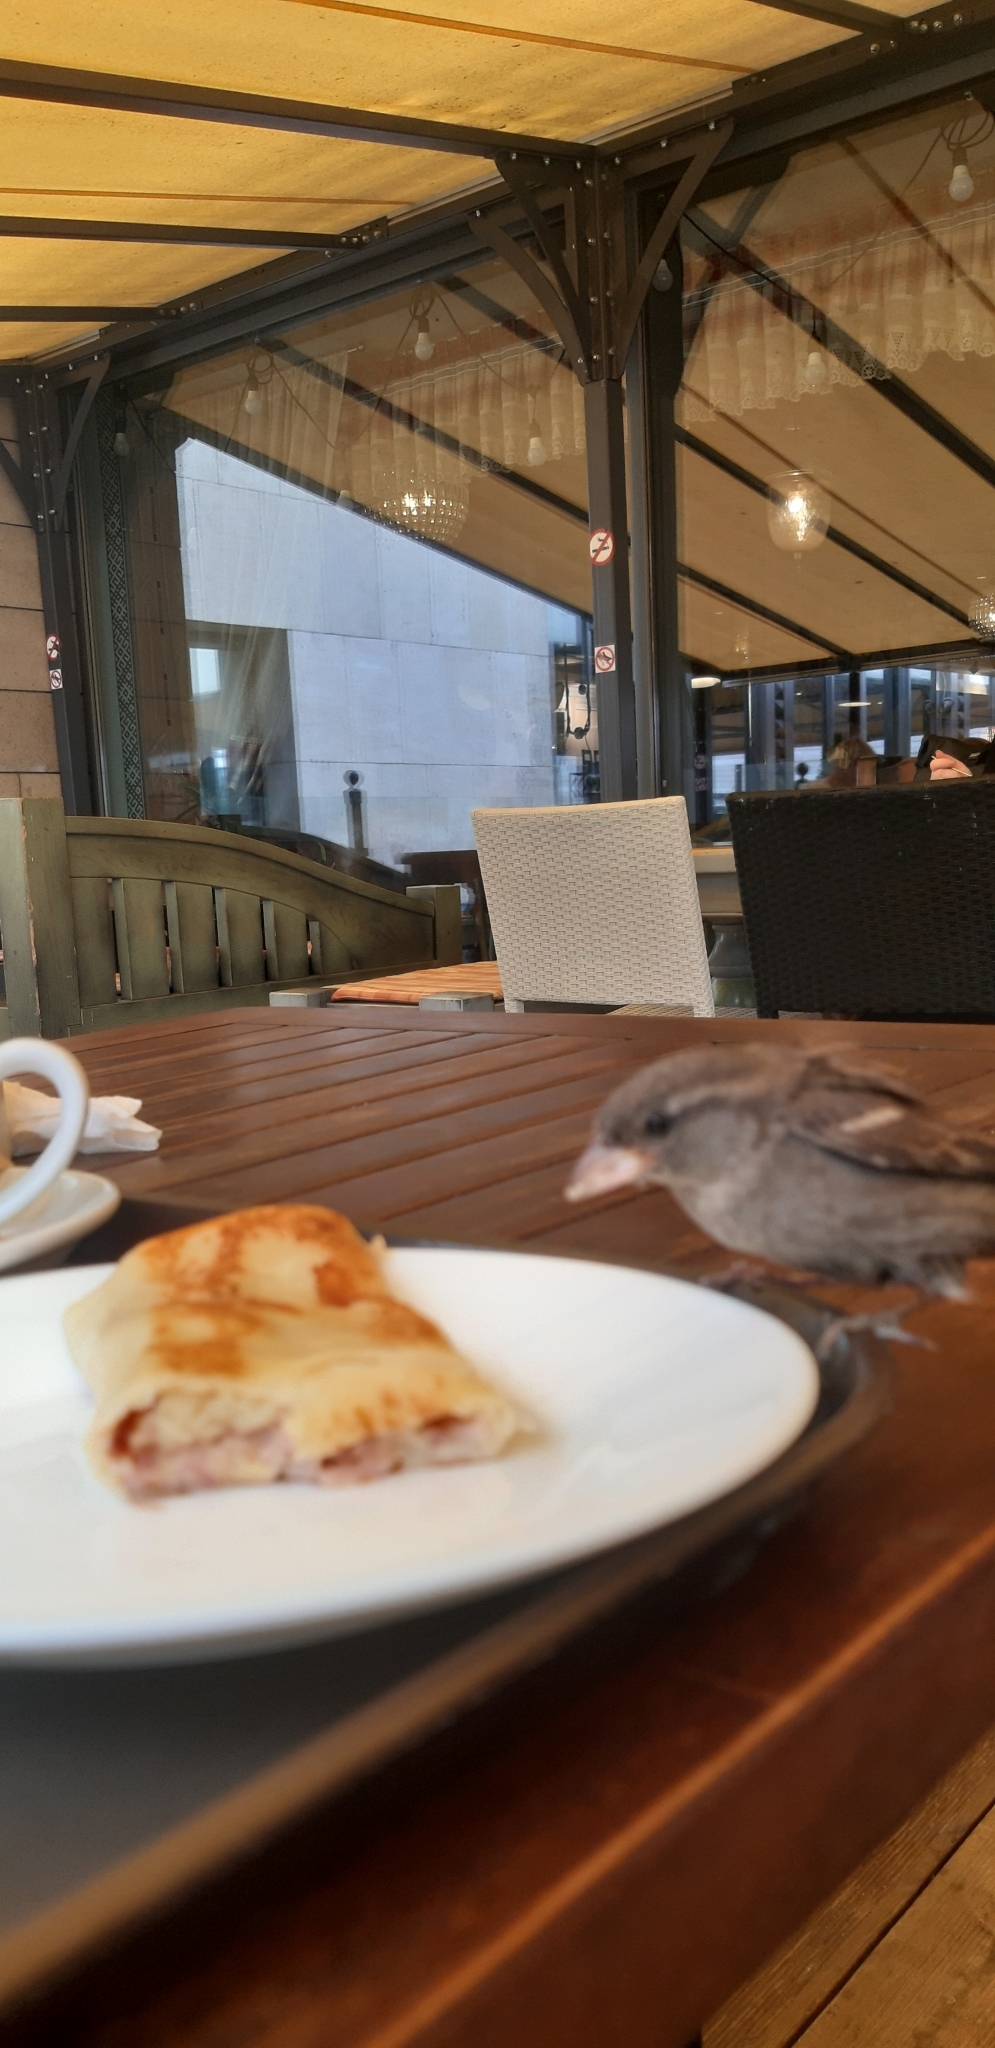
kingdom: Animalia
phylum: Chordata
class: Aves
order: Passeriformes
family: Passeridae
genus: Passer
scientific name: Passer domesticus
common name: House sparrow
